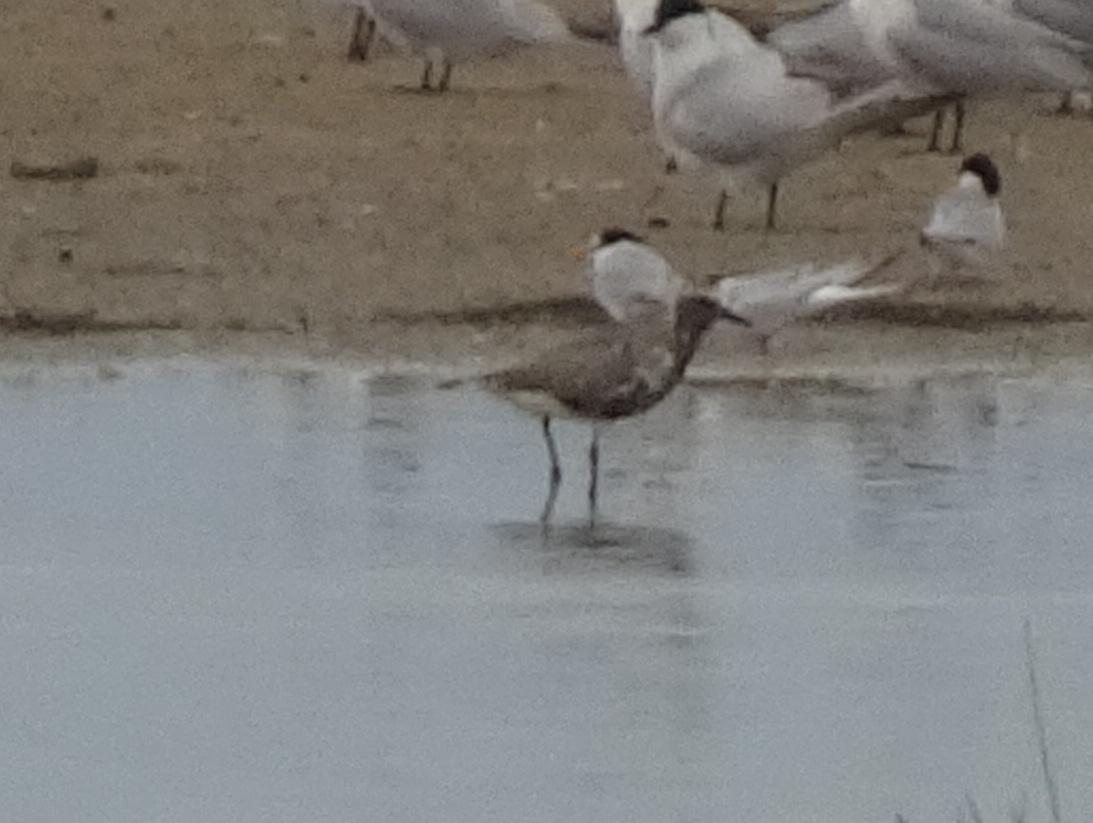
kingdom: Animalia
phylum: Chordata
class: Aves
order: Charadriiformes
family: Charadriidae
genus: Pluvialis
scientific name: Pluvialis apricaria
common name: European golden plover
